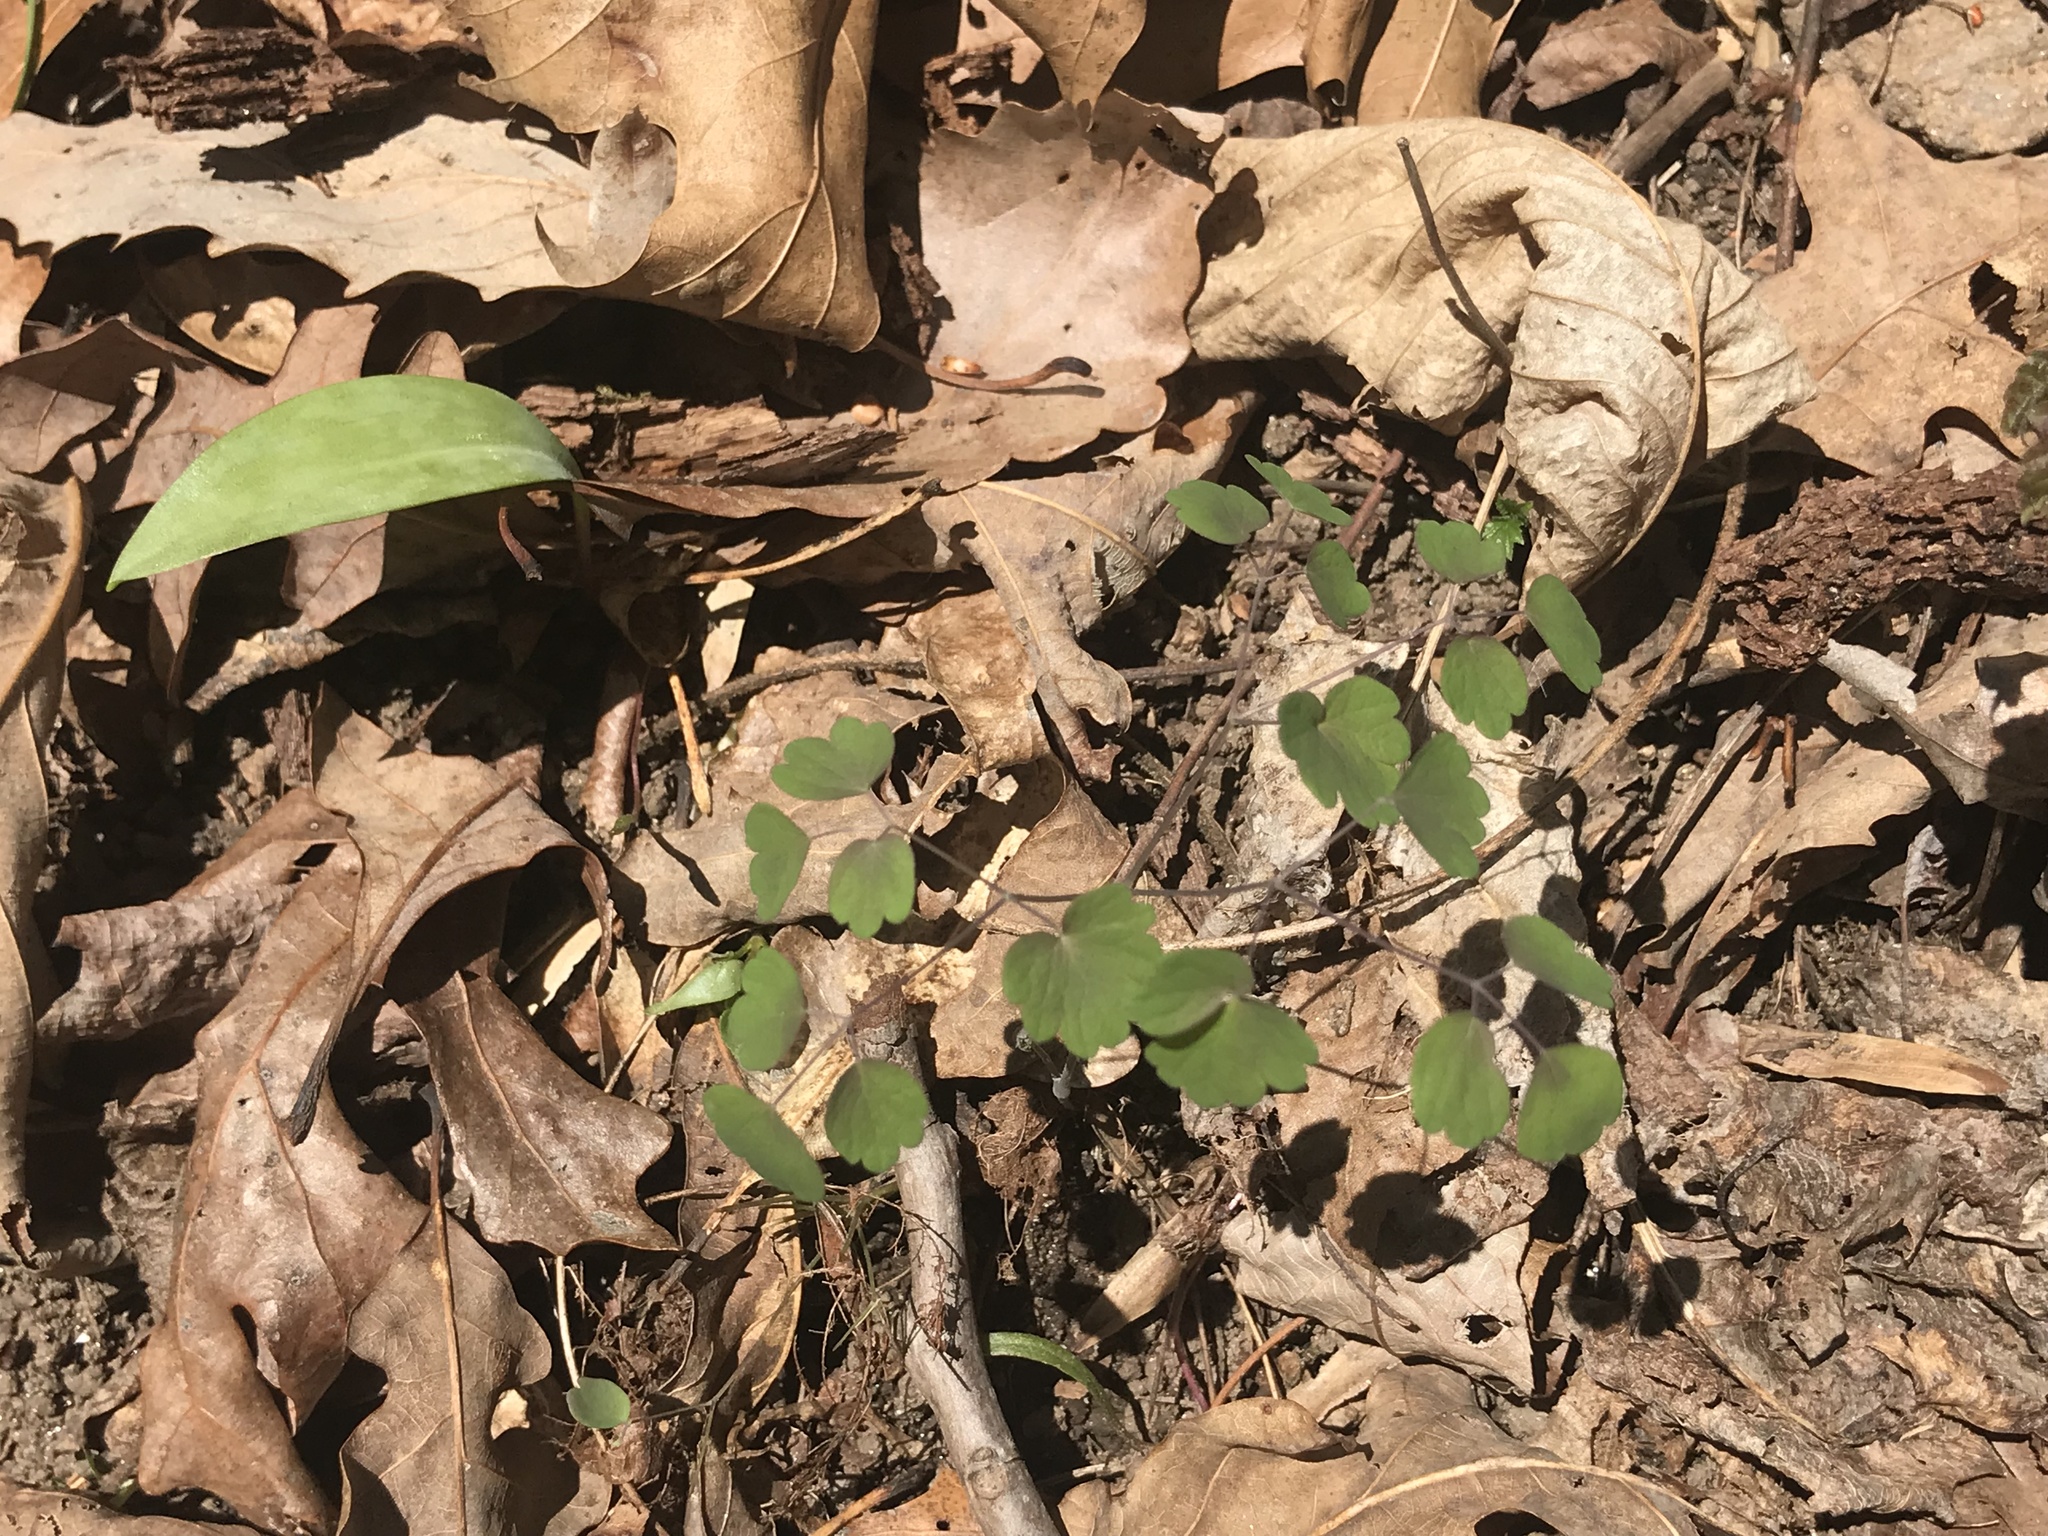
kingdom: Plantae
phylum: Tracheophyta
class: Magnoliopsida
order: Ranunculales
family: Ranunculaceae
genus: Thalictrum
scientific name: Thalictrum thalictroides
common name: Rue-anemone
